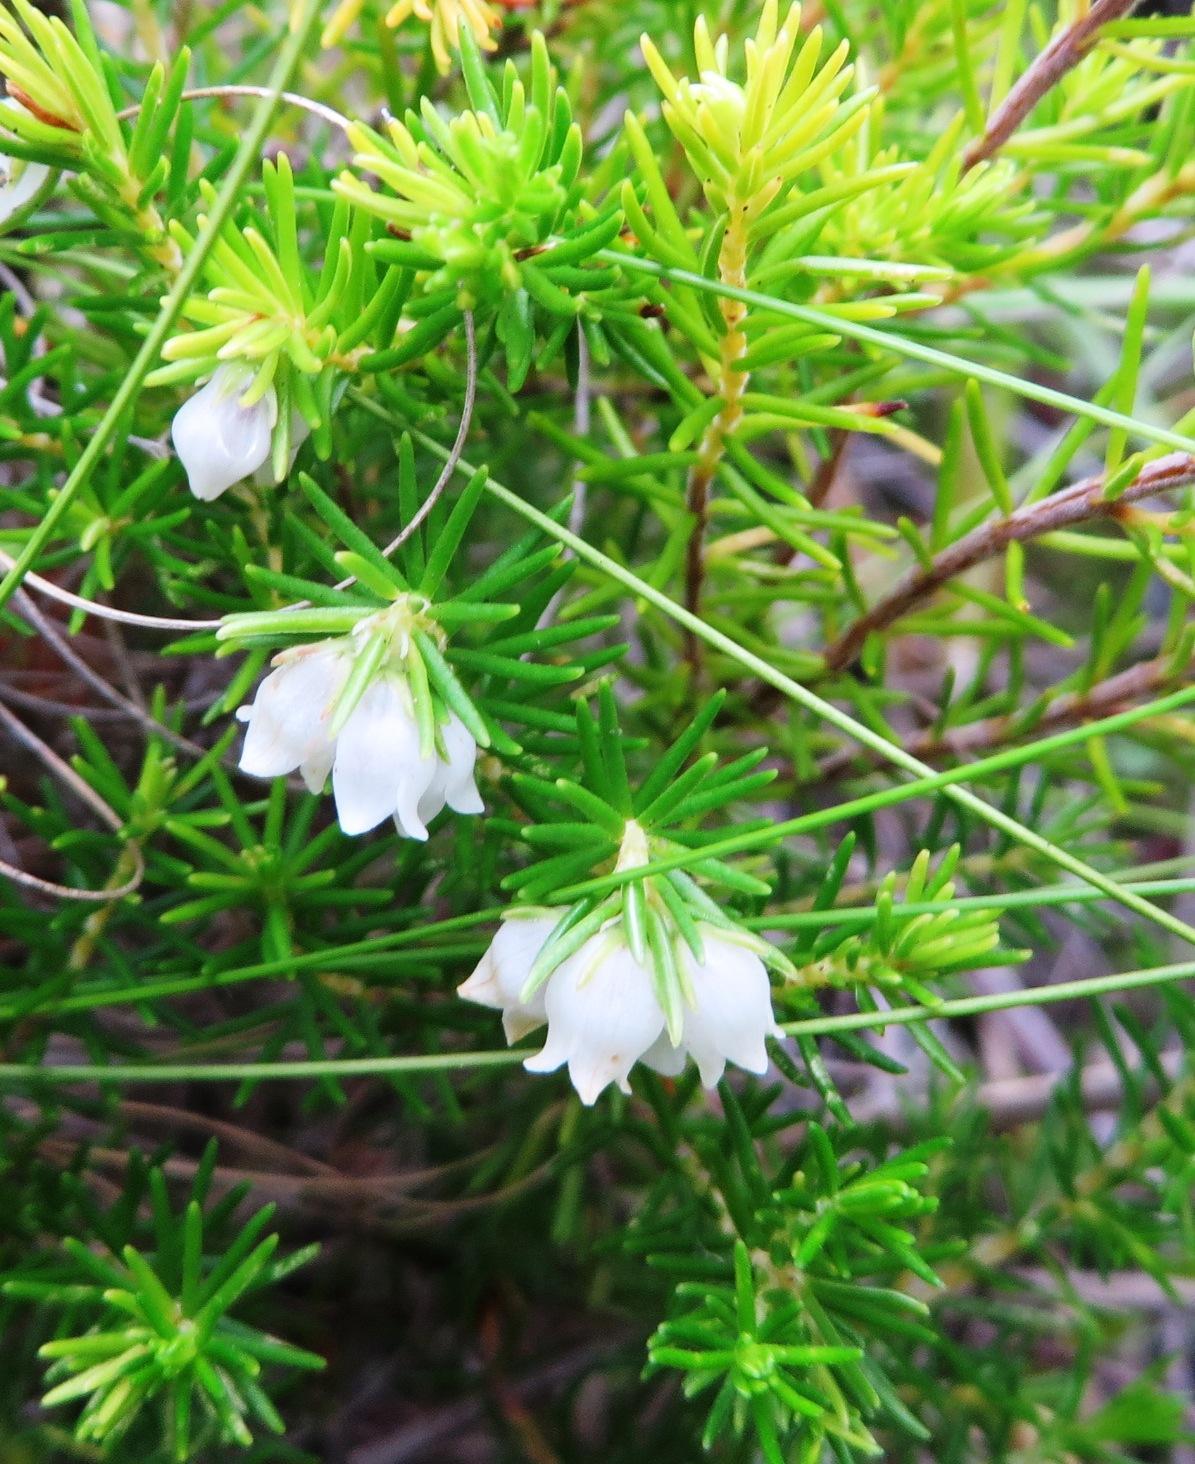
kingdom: Plantae
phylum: Tracheophyta
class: Magnoliopsida
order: Ericales
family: Ericaceae
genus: Erica
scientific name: Erica subdivaricata
